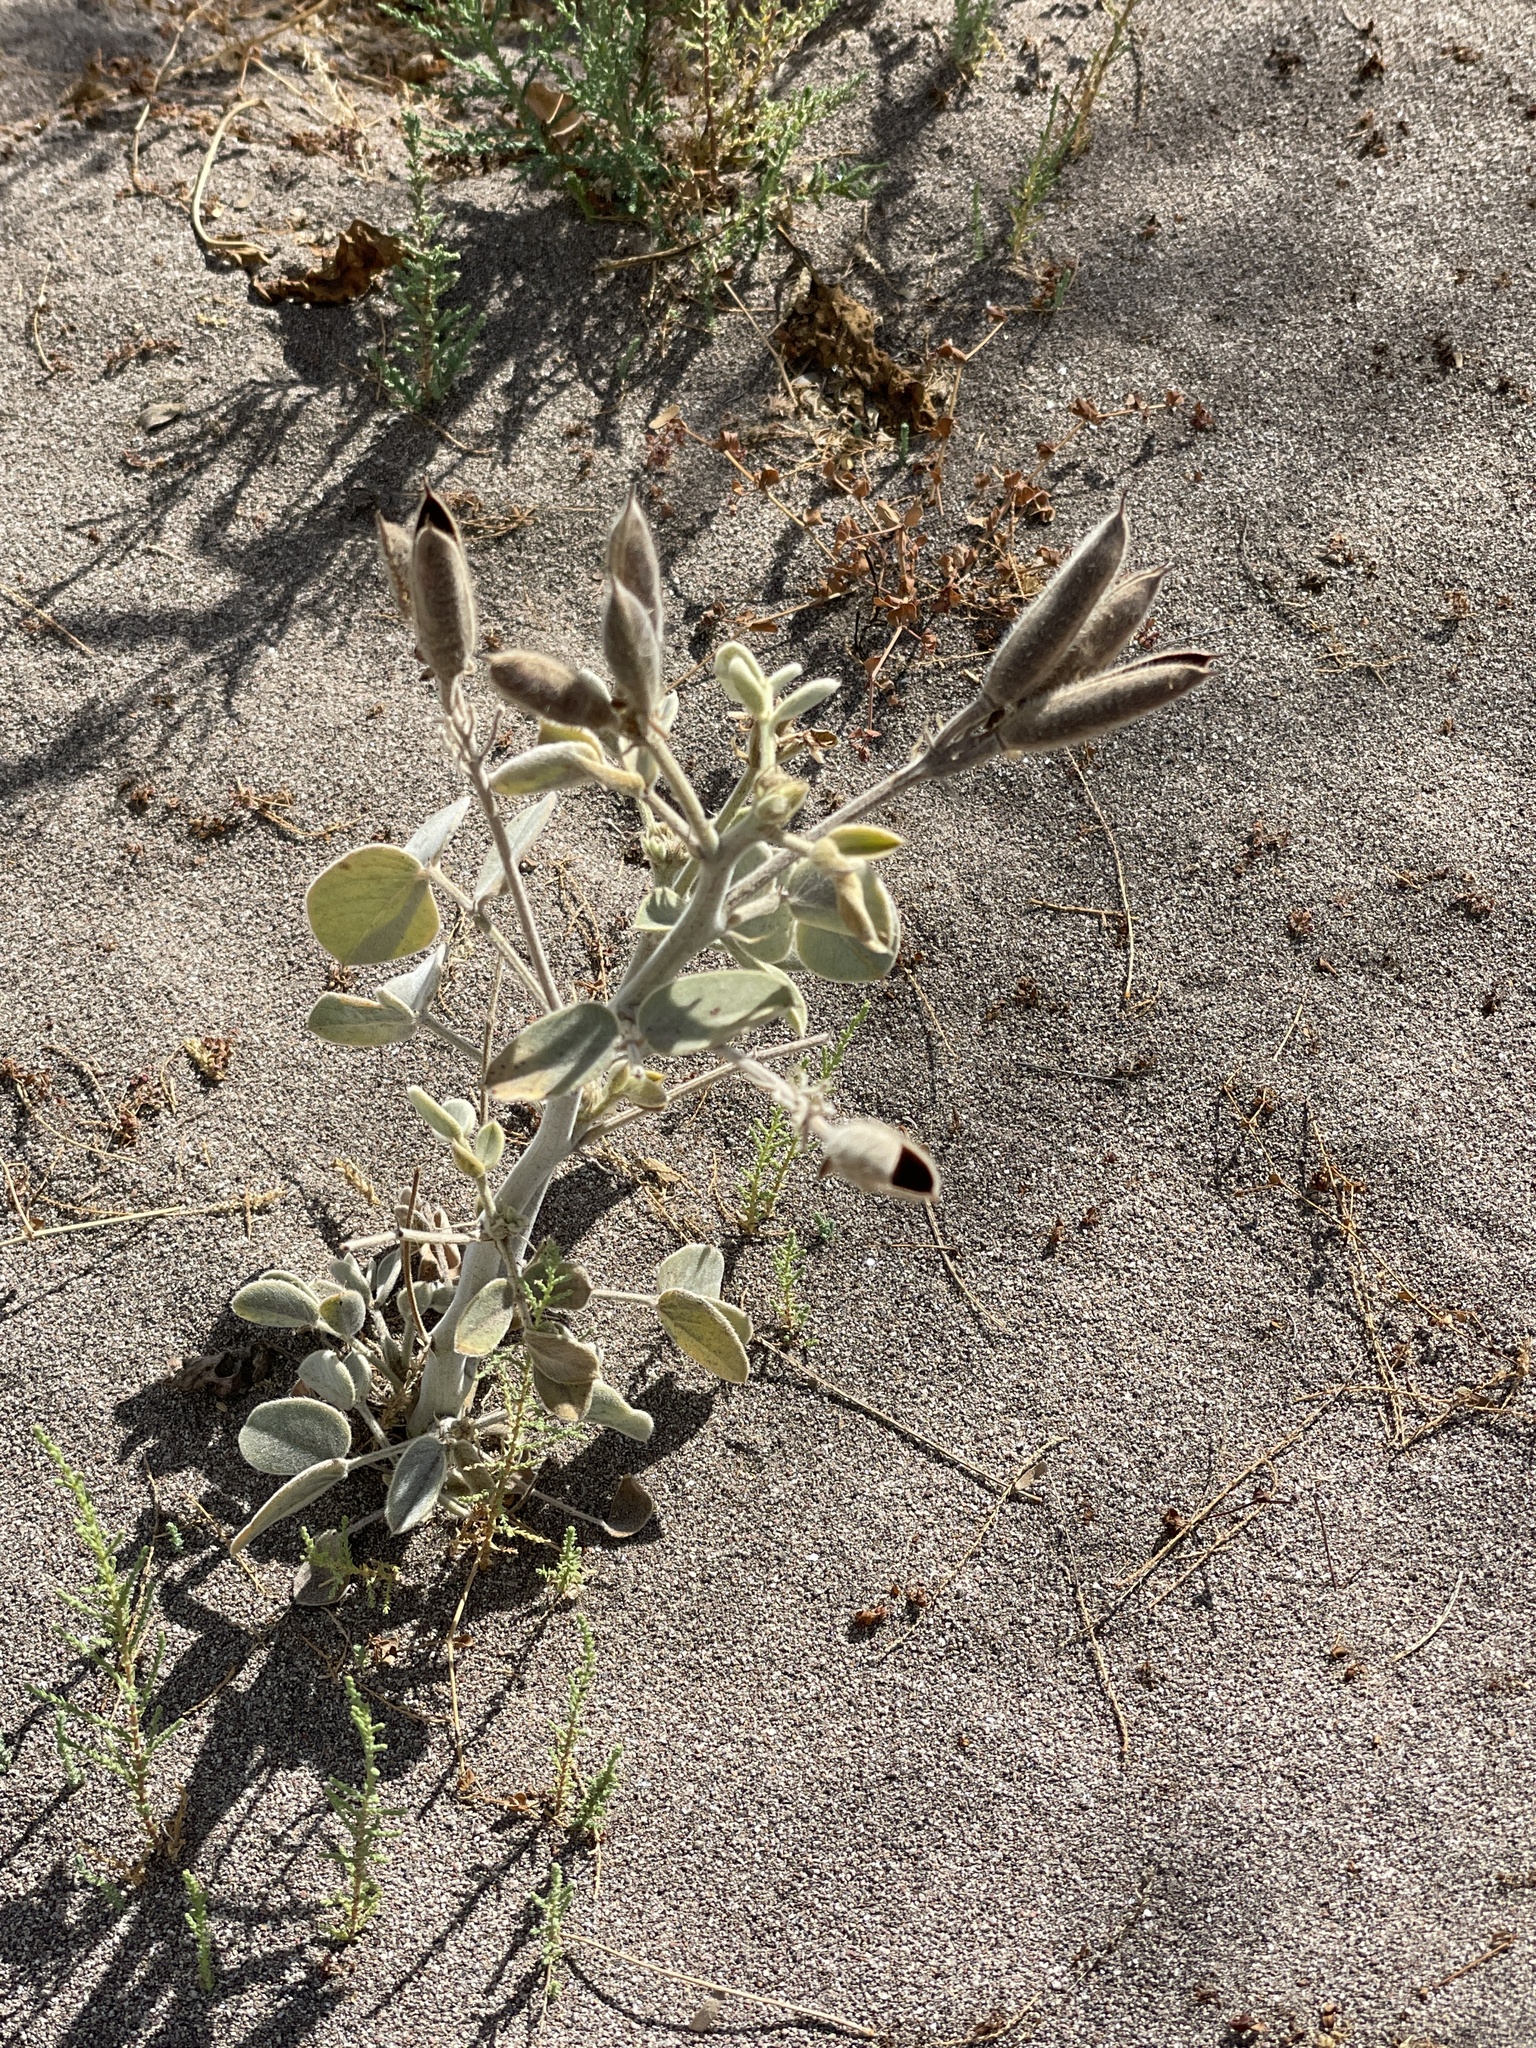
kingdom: Plantae
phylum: Tracheophyta
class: Magnoliopsida
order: Fabales
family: Fabaceae
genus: Senna
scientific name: Senna confinis
